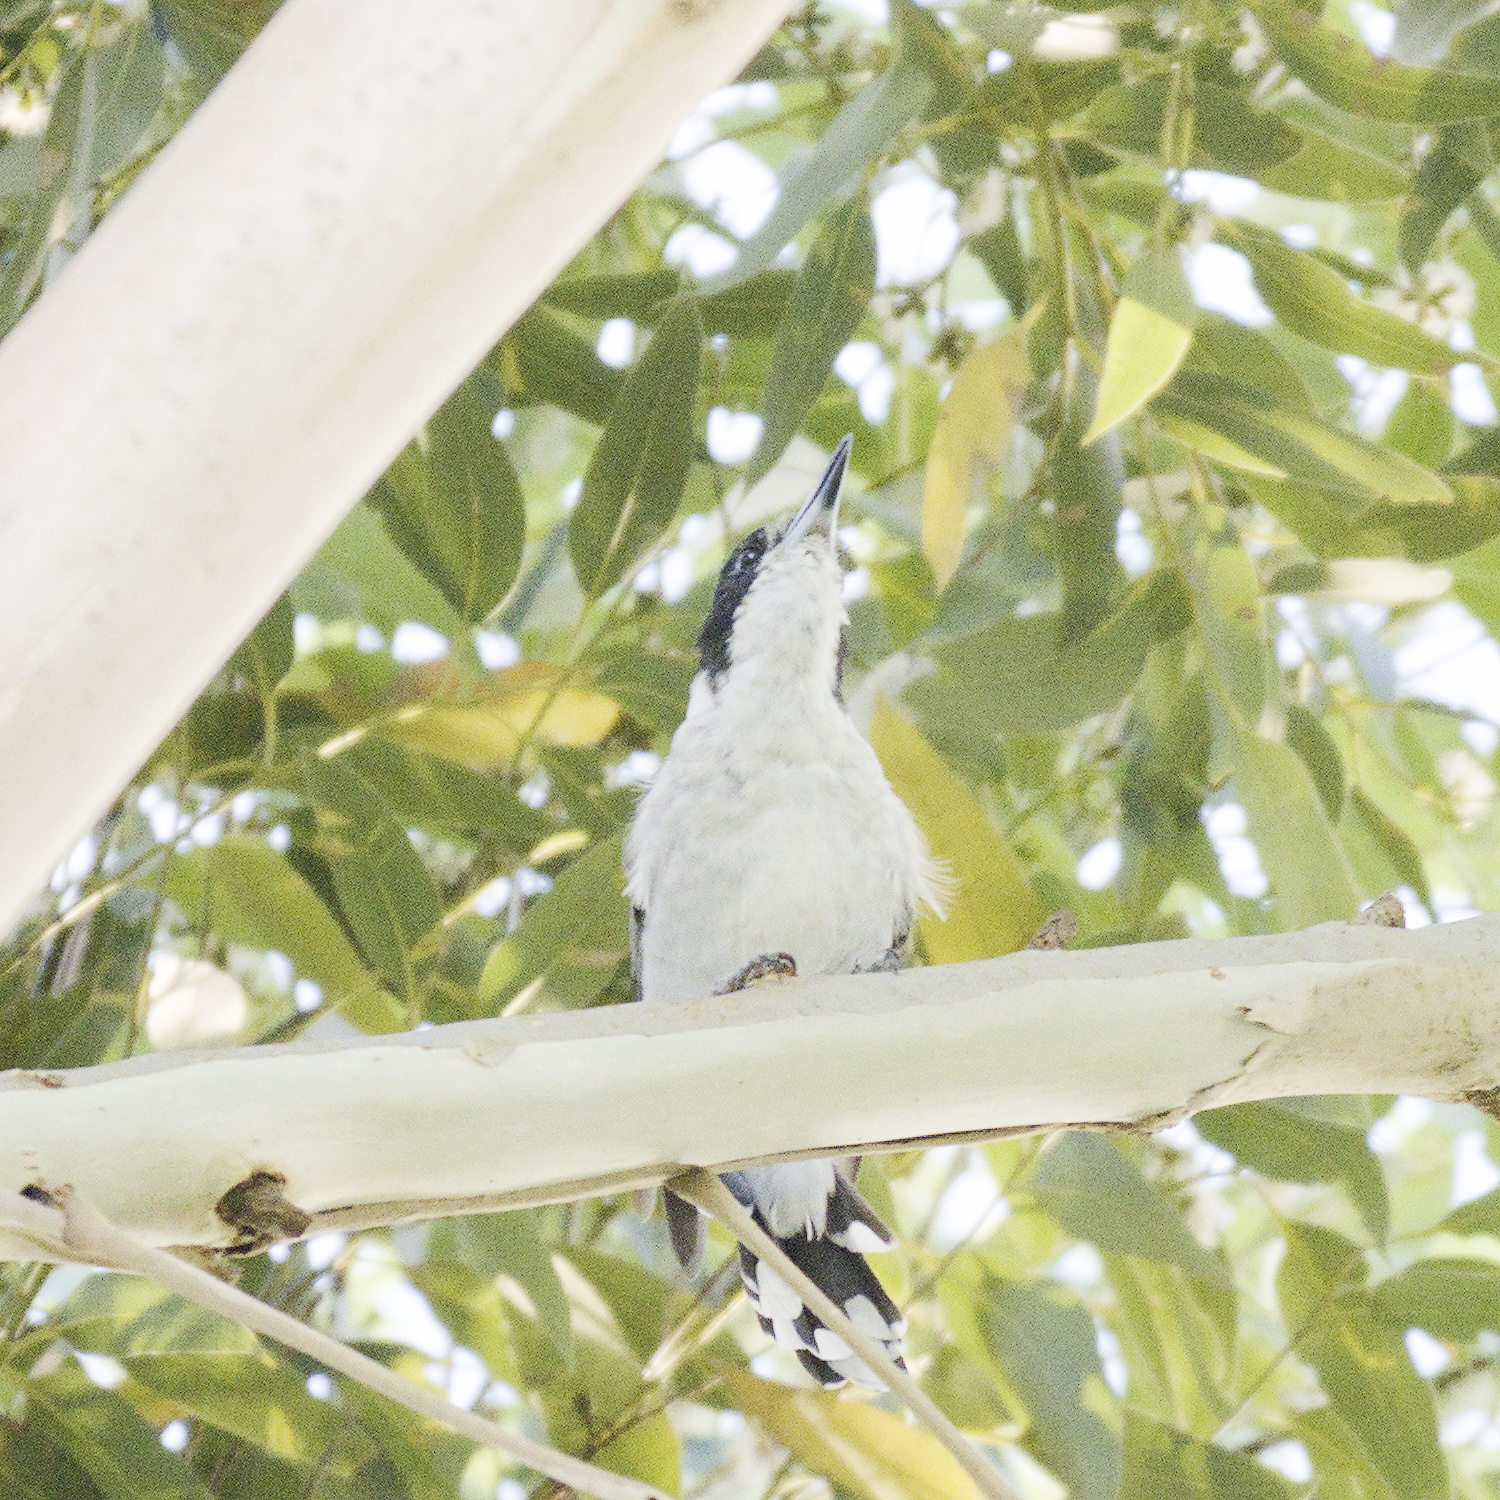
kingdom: Animalia
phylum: Chordata
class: Aves
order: Passeriformes
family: Cracticidae
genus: Cracticus
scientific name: Cracticus torquatus
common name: Grey butcherbird
